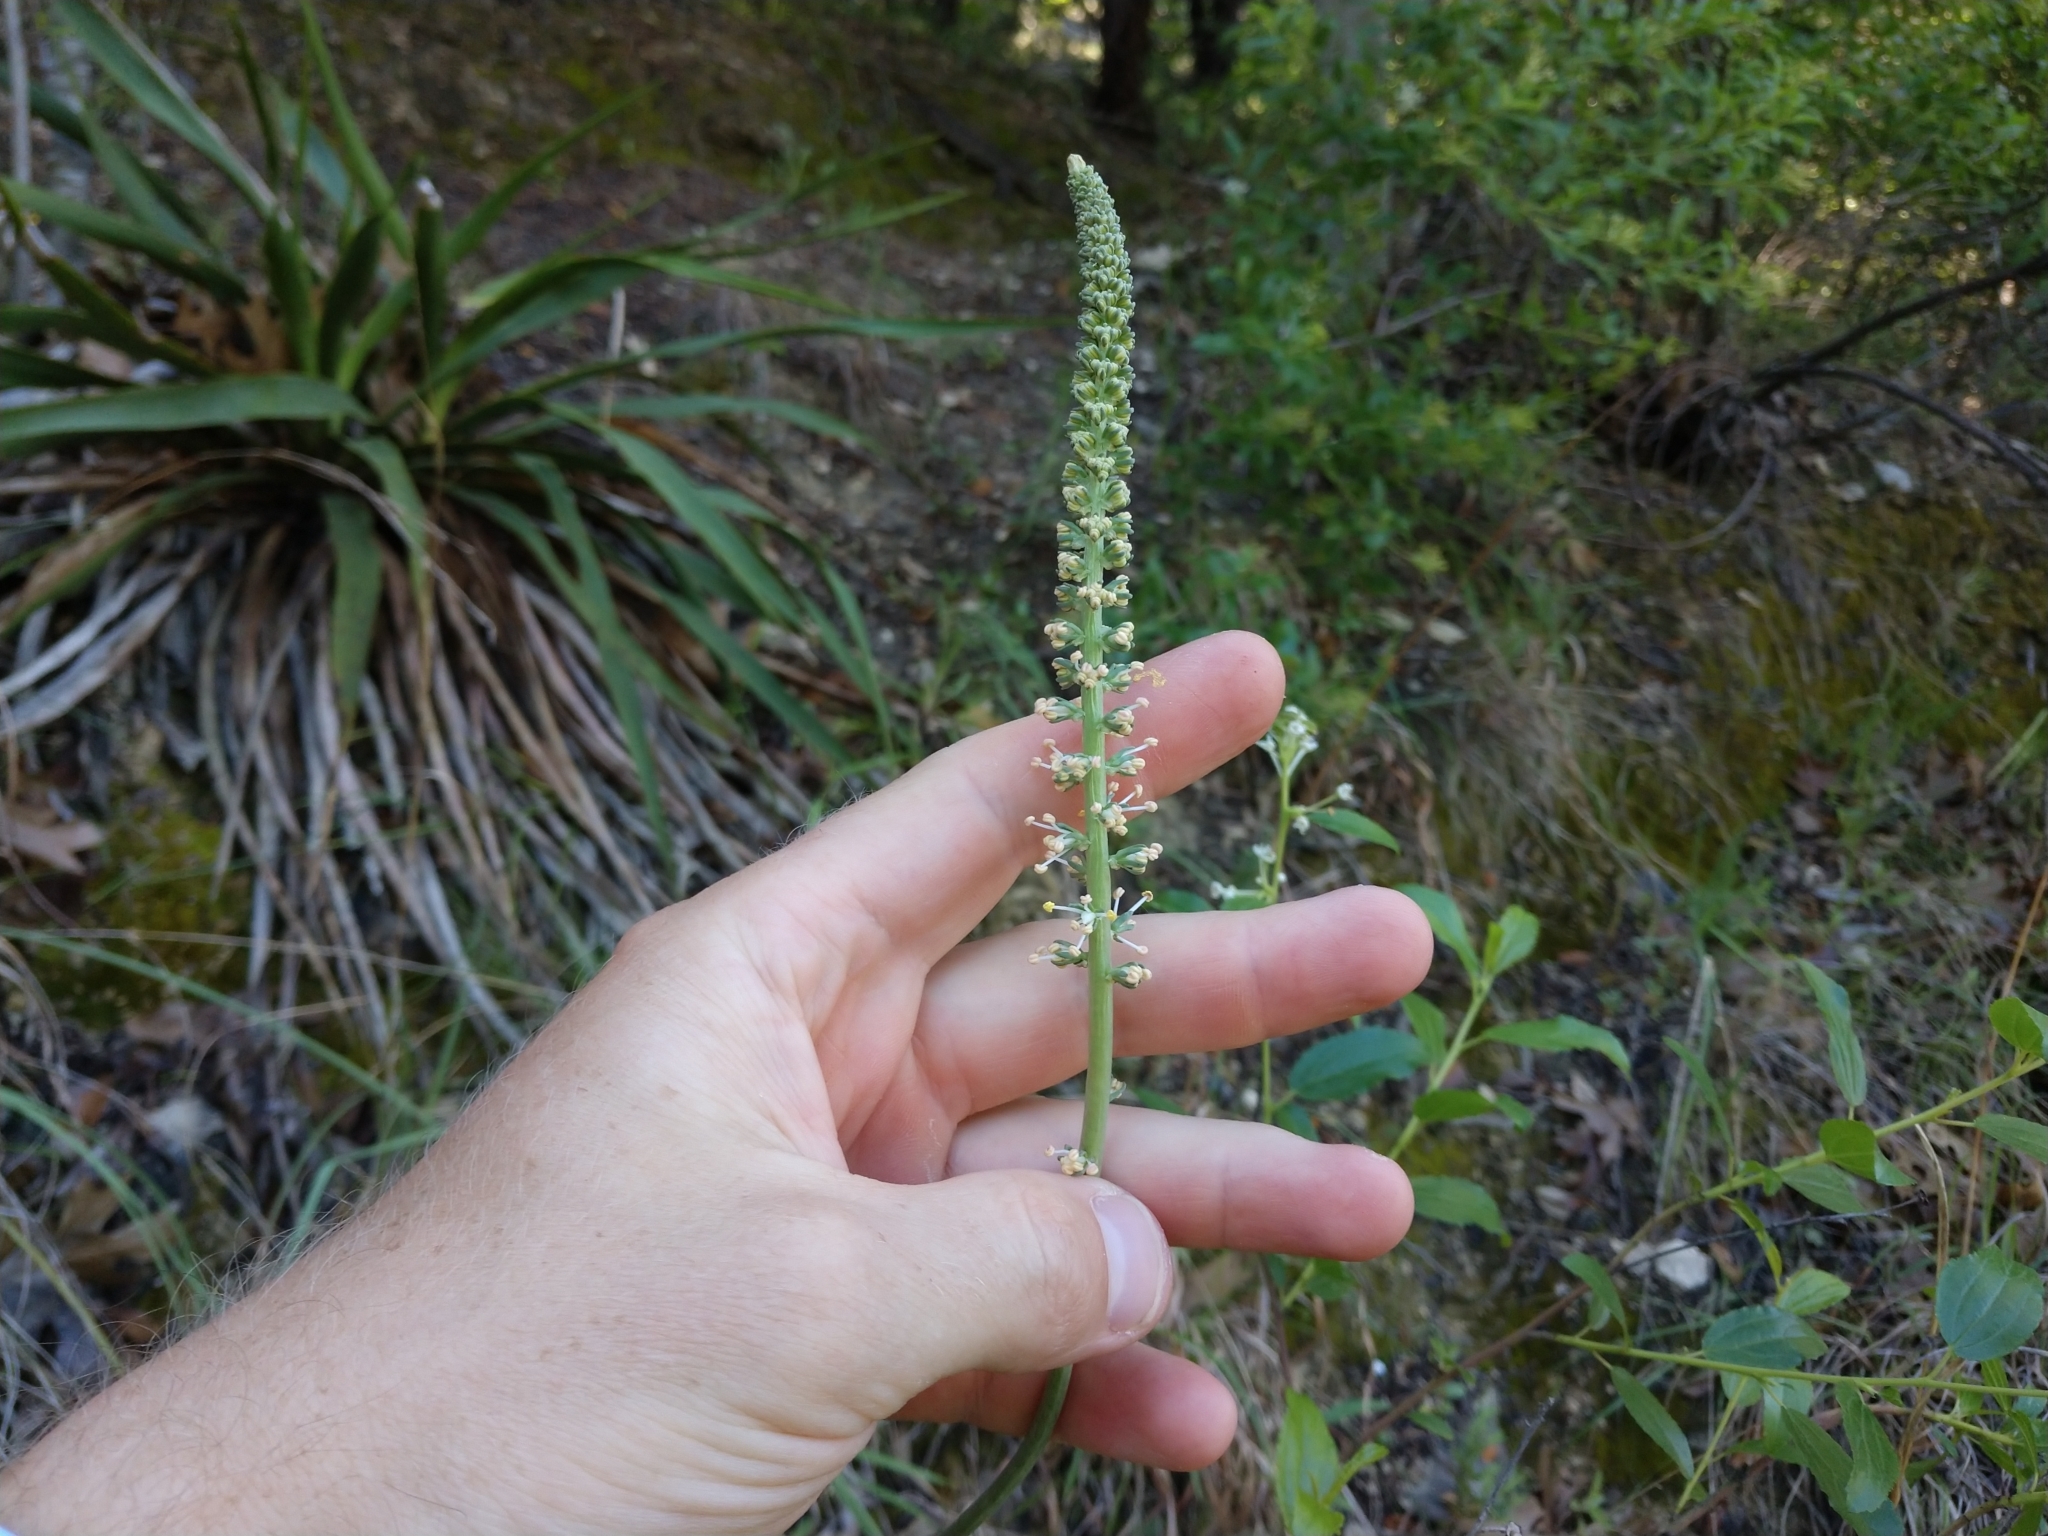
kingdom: Plantae
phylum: Tracheophyta
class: Liliopsida
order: Liliales
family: Melanthiaceae
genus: Schoenocaulon
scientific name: Schoenocaulon texanum
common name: Texas feather-shank
